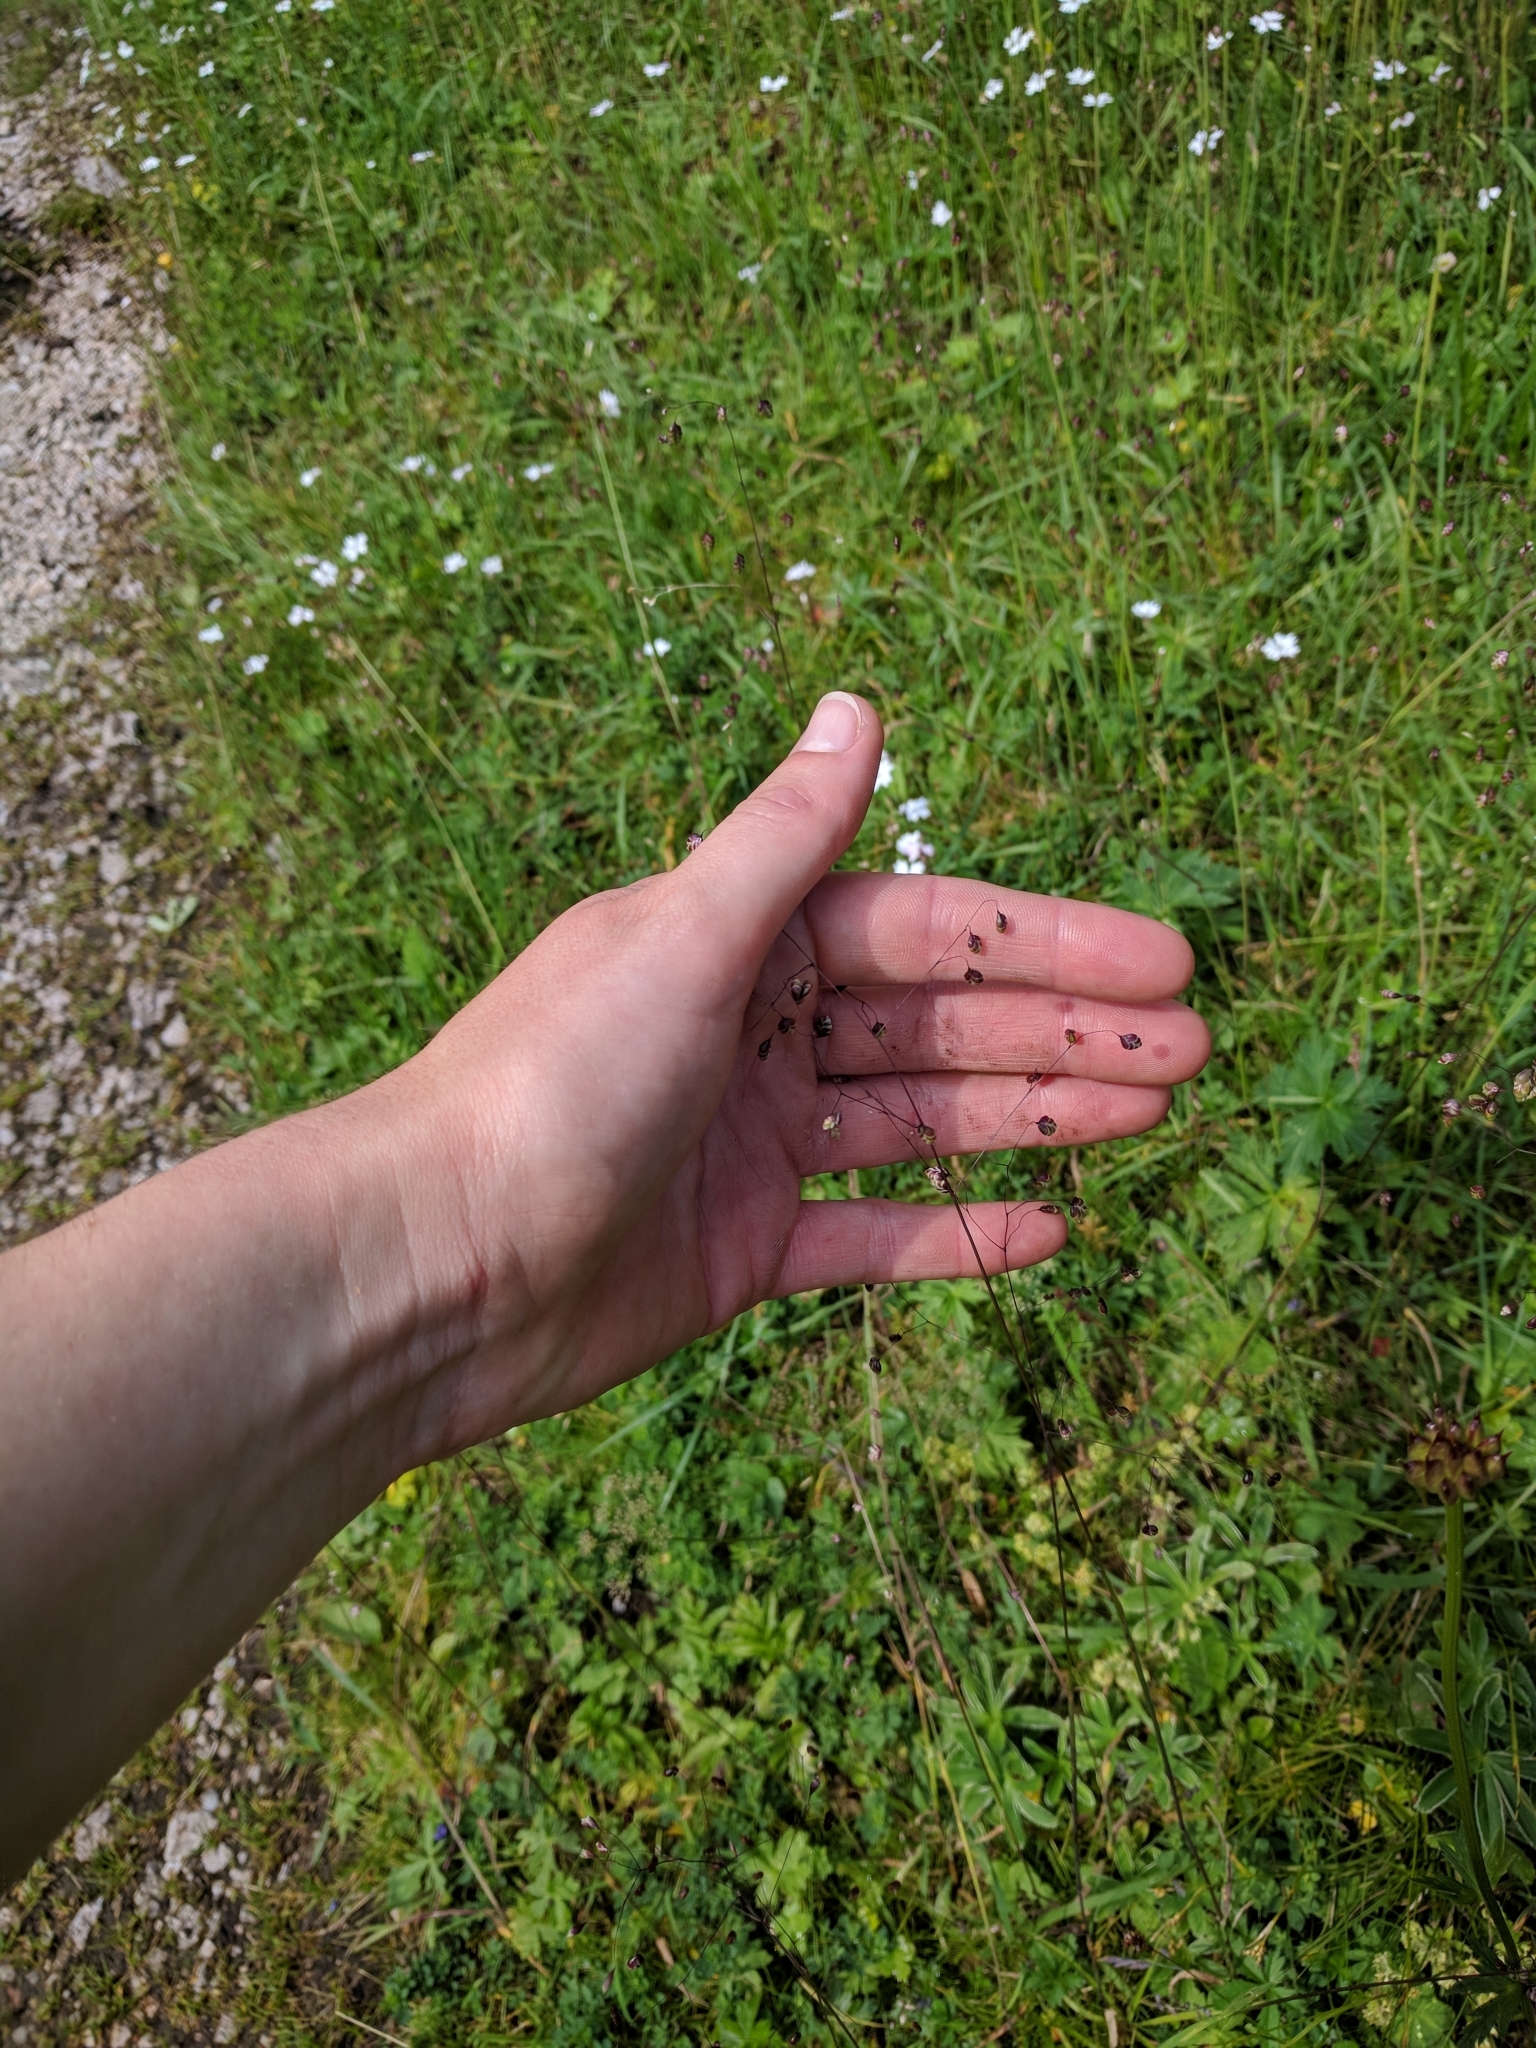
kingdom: Plantae
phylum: Tracheophyta
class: Liliopsida
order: Poales
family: Poaceae
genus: Briza
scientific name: Briza media
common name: Quaking grass
